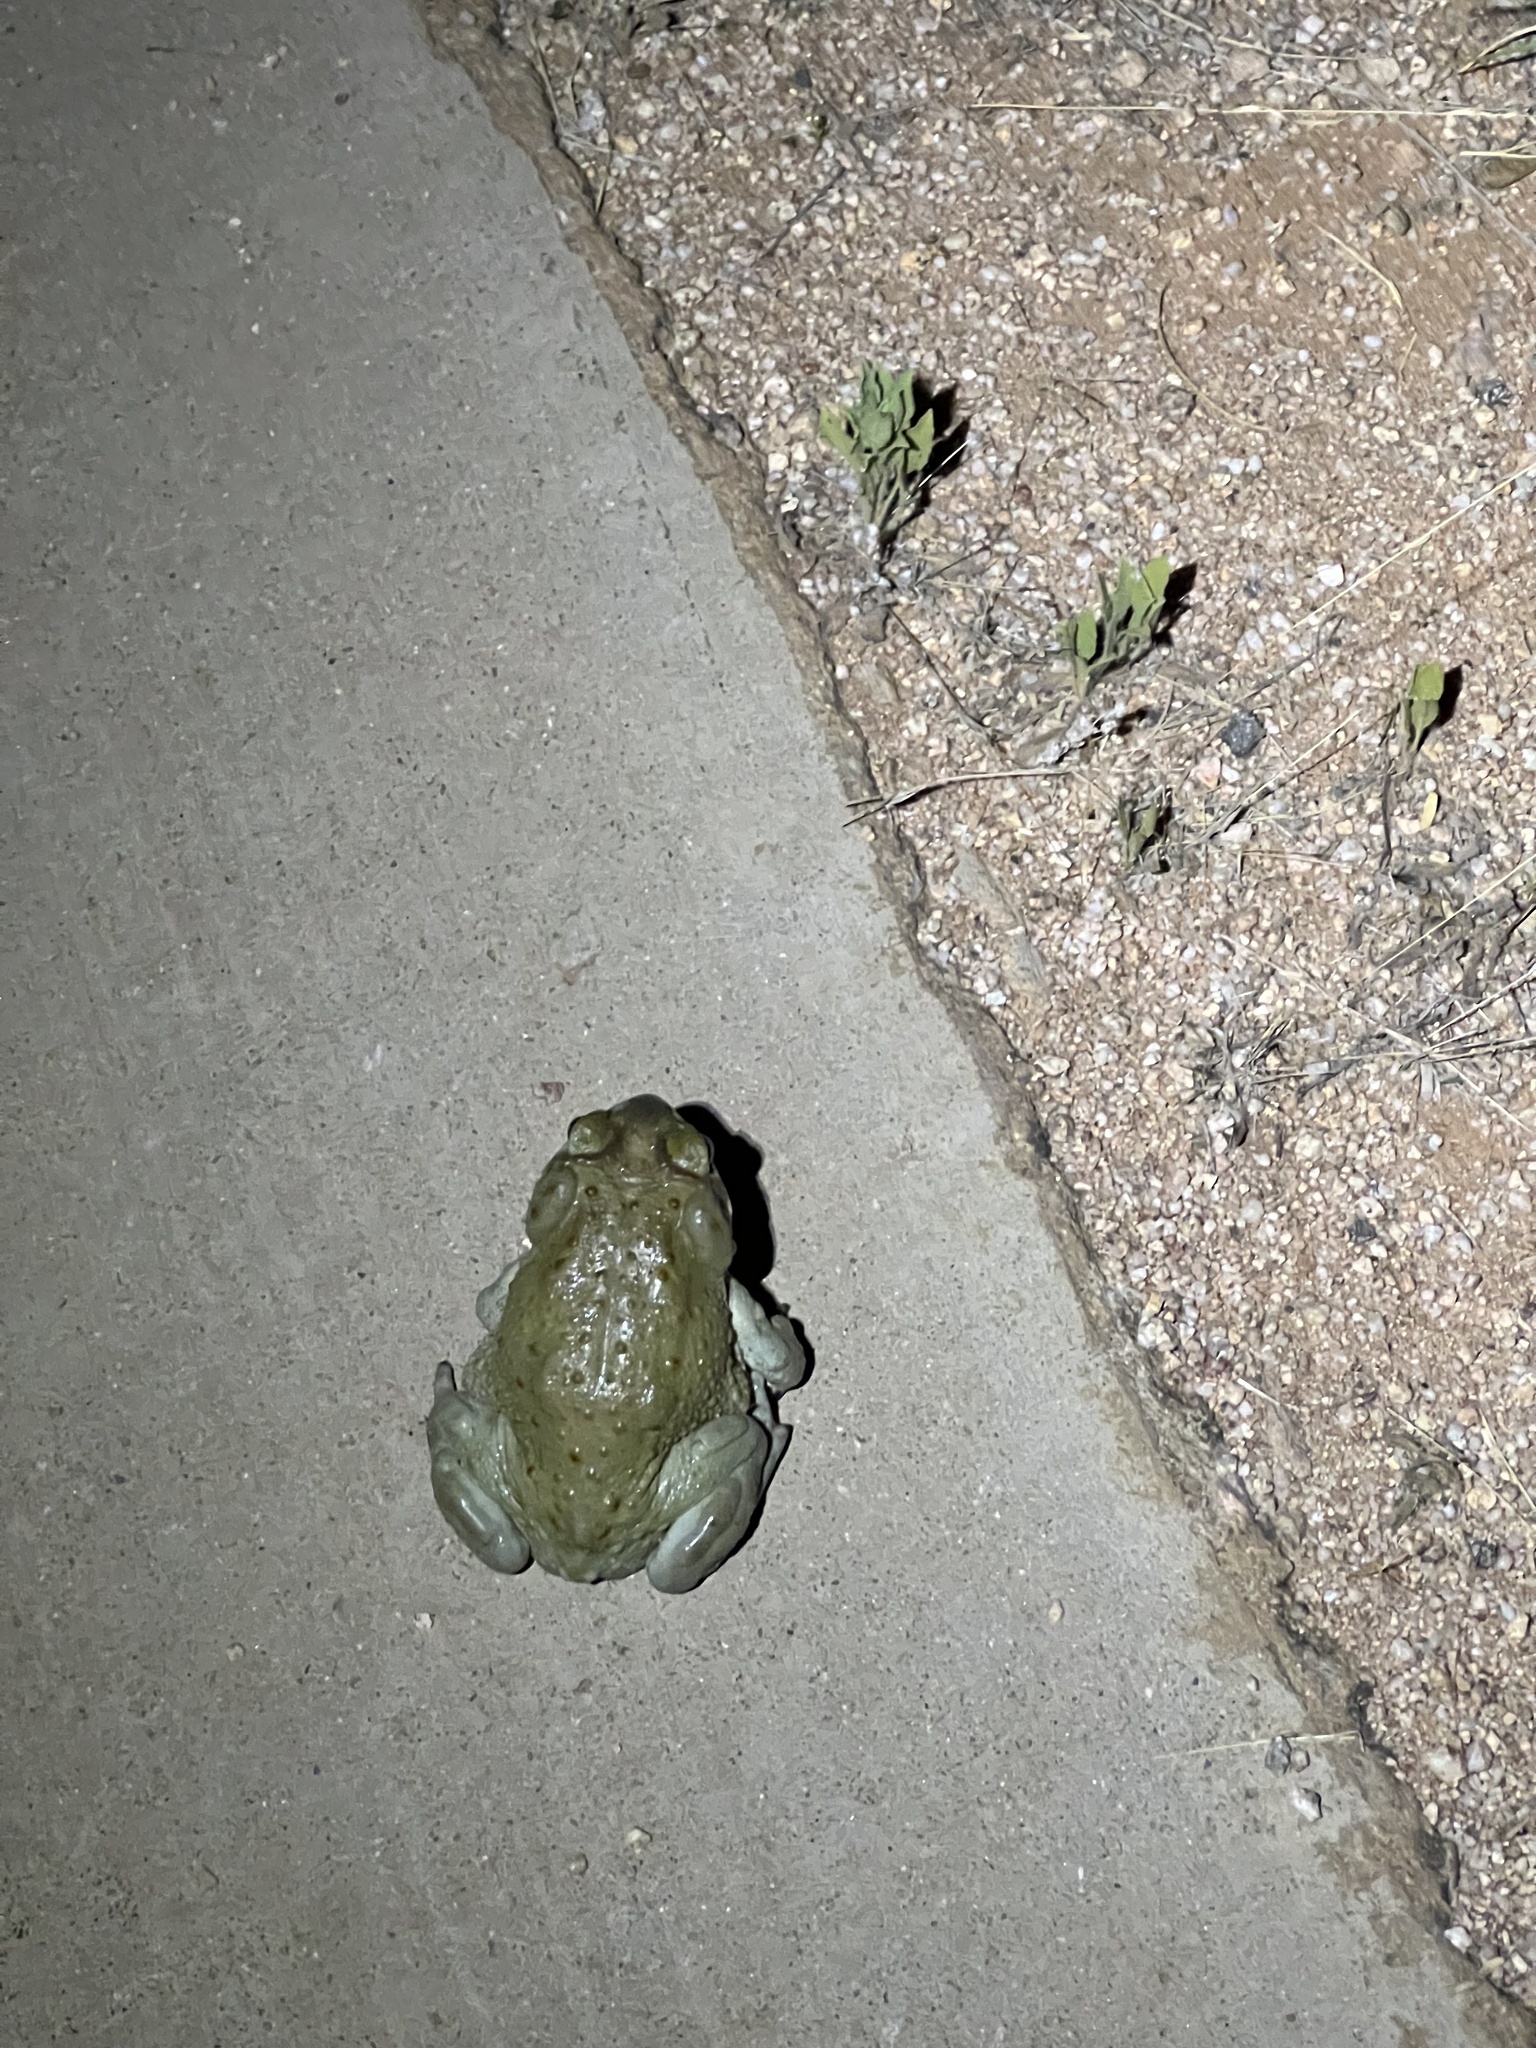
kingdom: Animalia
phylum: Chordata
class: Amphibia
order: Anura
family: Bufonidae
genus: Incilius
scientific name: Incilius alvarius
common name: Sonoran desert toad
